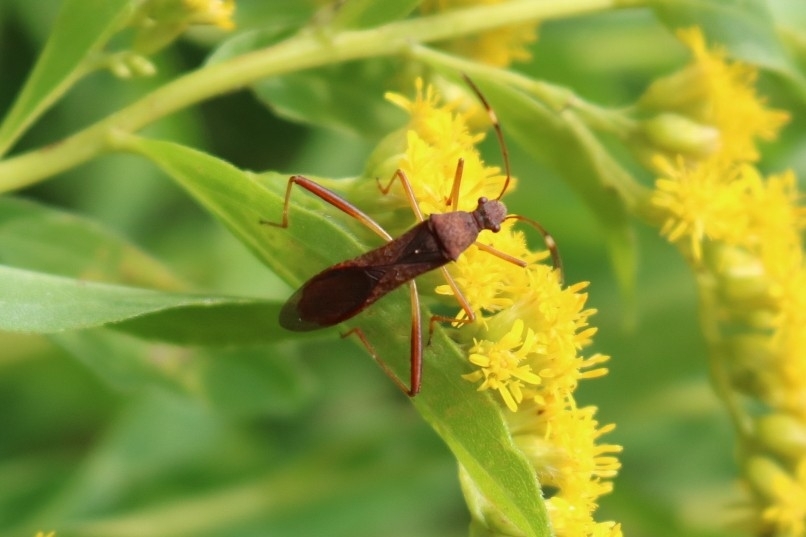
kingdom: Animalia
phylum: Arthropoda
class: Insecta
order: Hemiptera
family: Alydidae
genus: Megalotomus
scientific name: Megalotomus quinquespinosus
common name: Lupine bug
